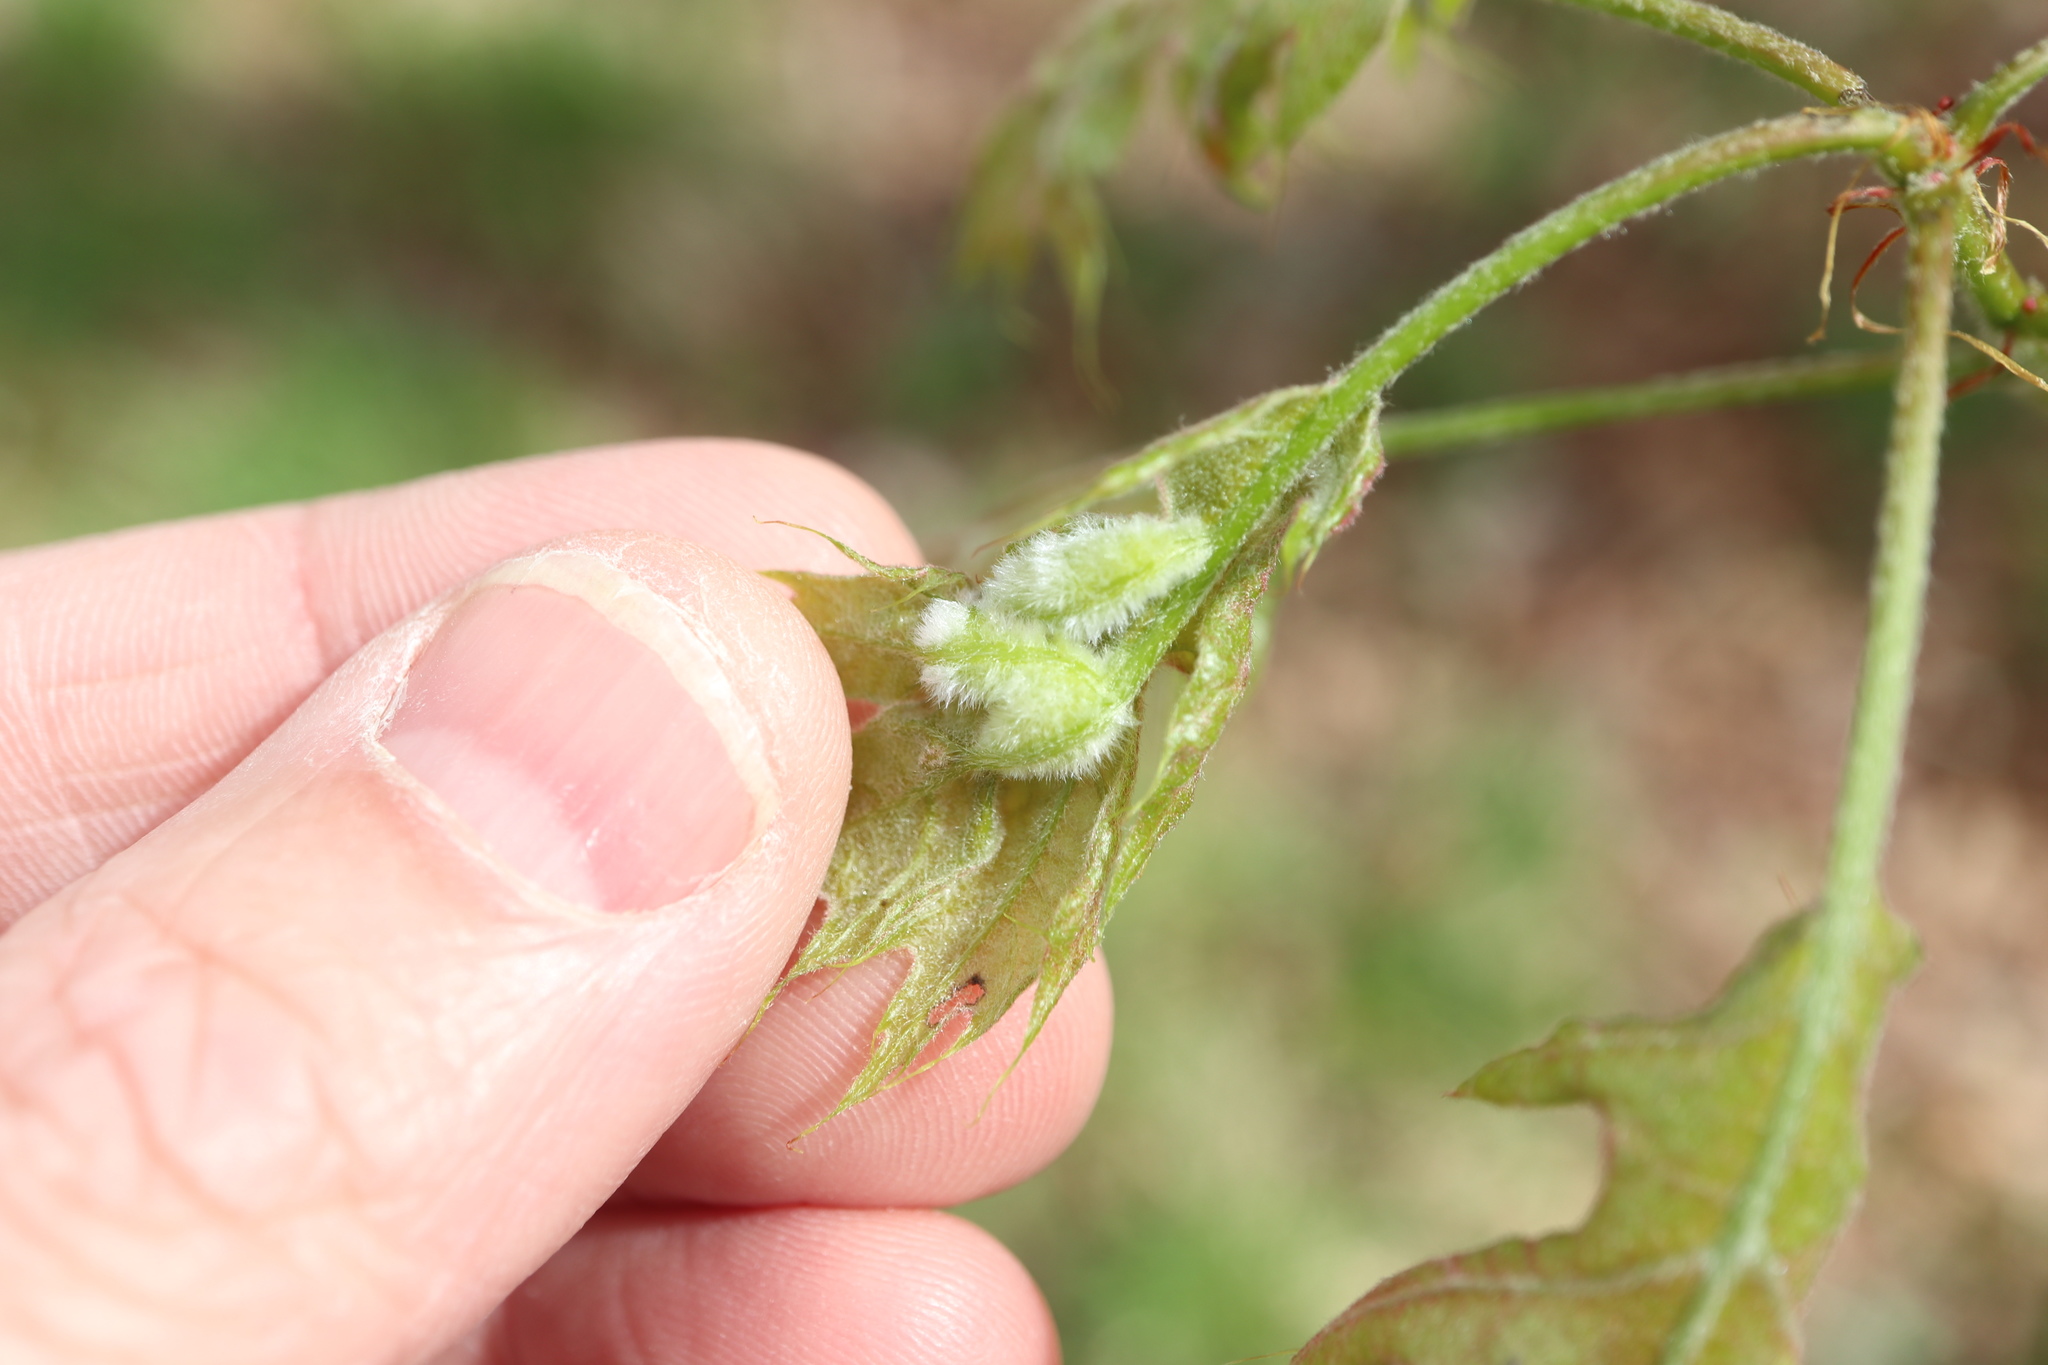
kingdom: Animalia
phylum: Arthropoda
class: Insecta
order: Diptera
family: Cecidomyiidae
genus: Macrodiplosis
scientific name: Macrodiplosis niveipila
